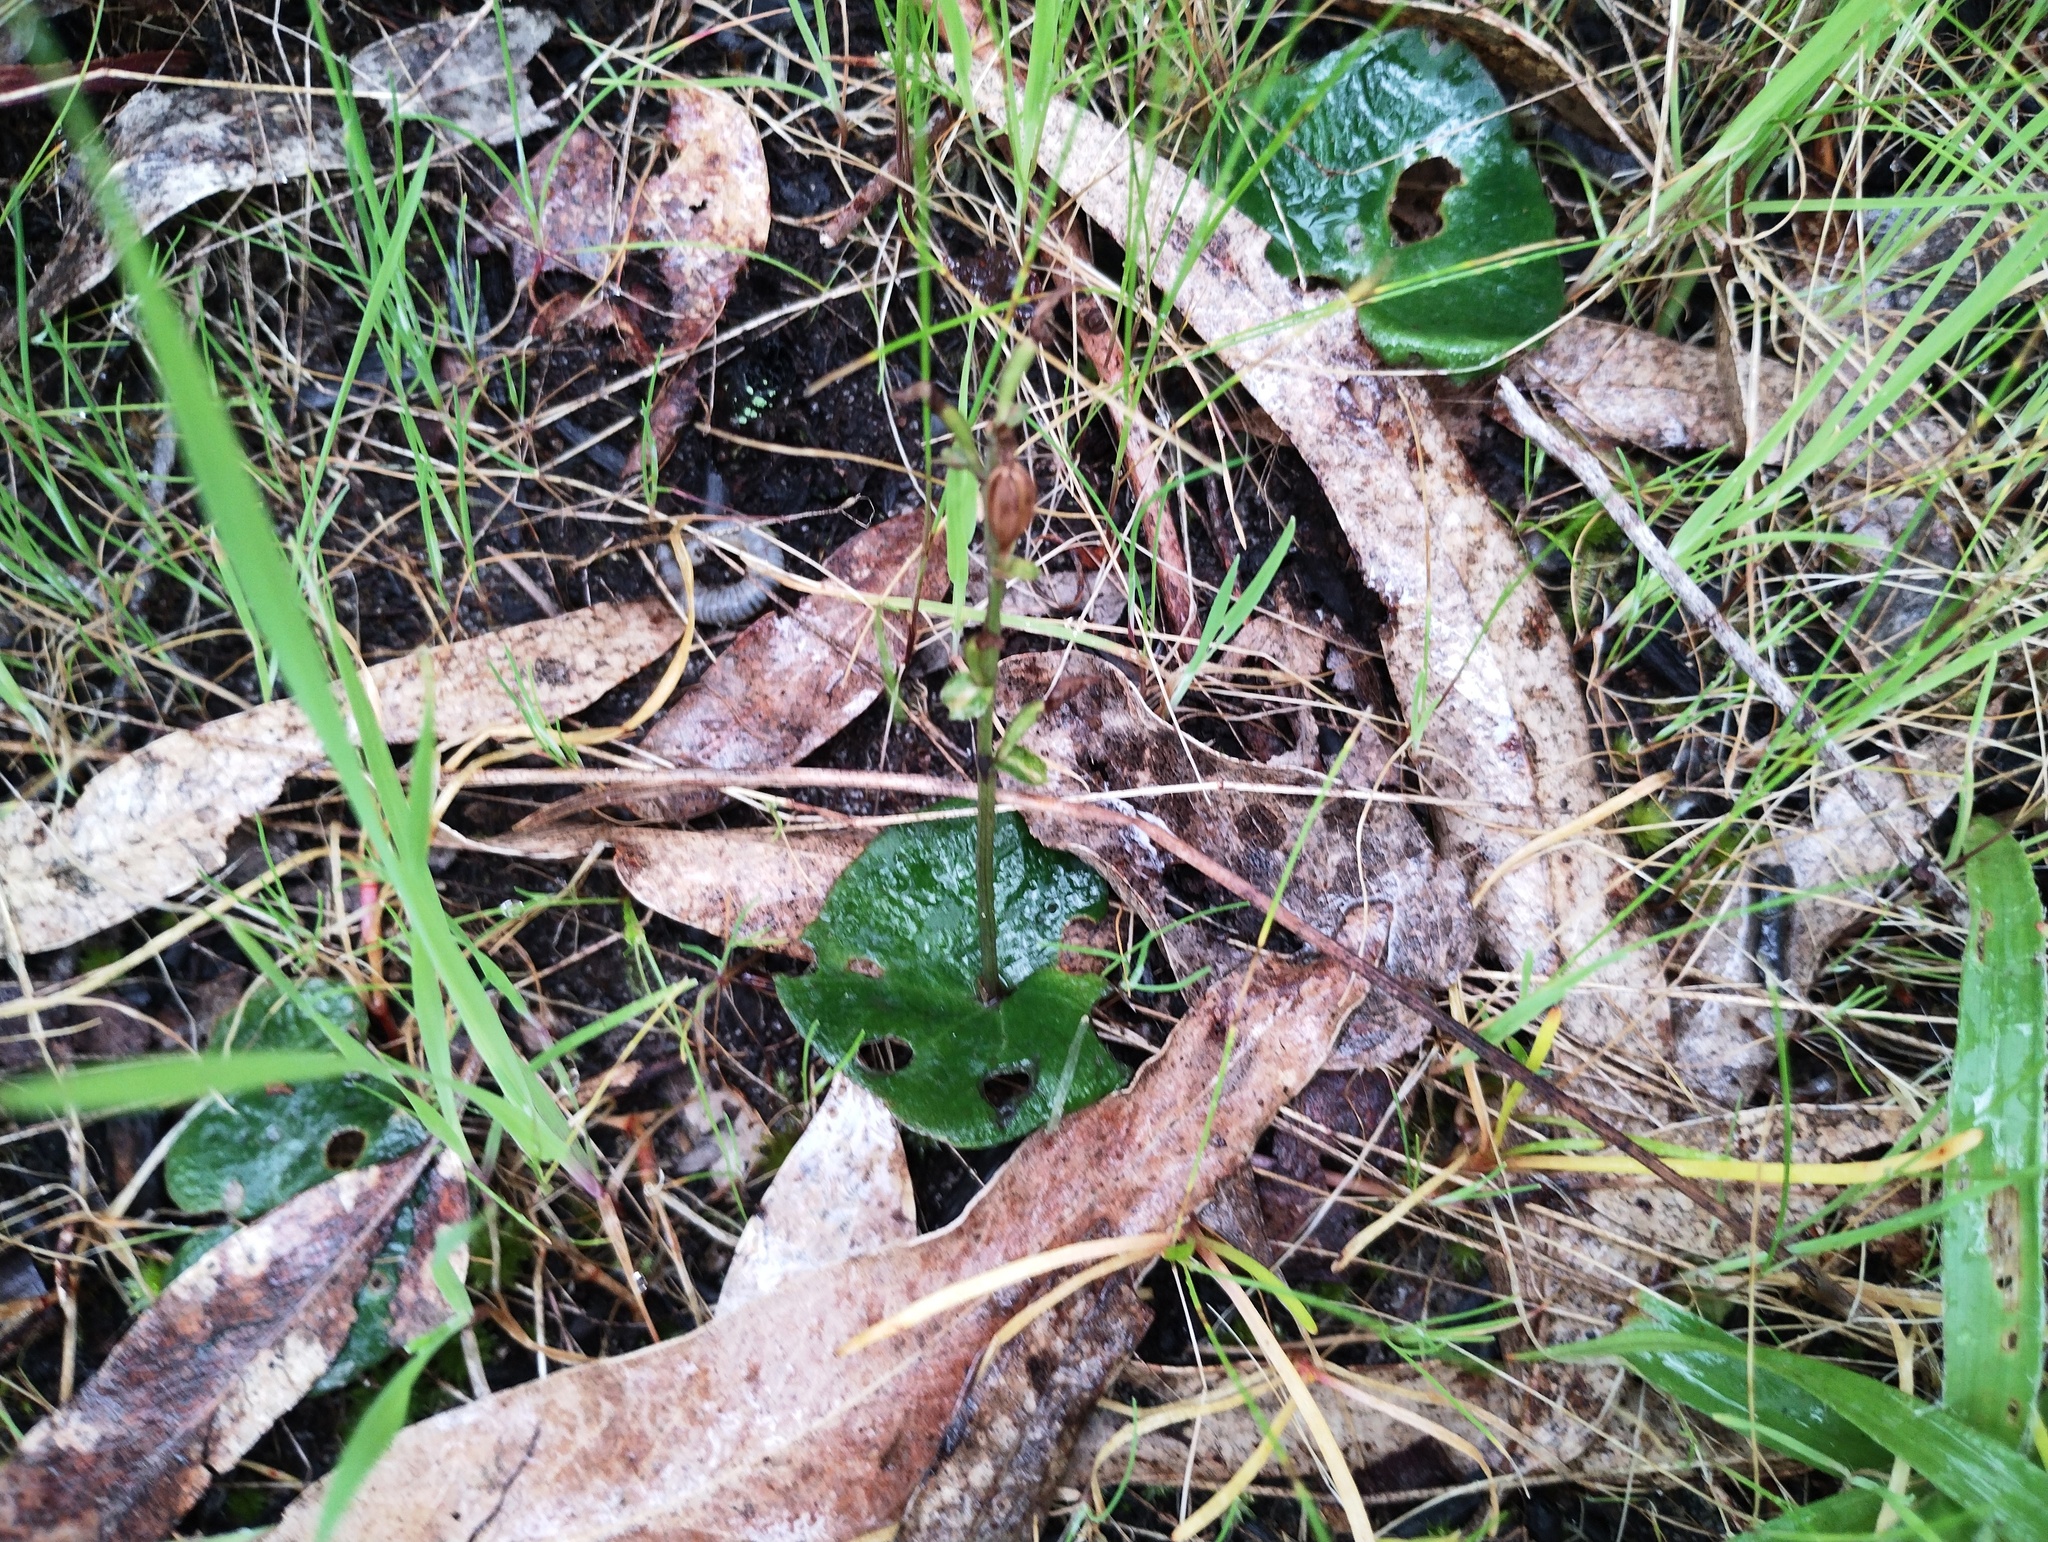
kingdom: Plantae
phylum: Tracheophyta
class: Liliopsida
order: Asparagales
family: Orchidaceae
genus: Acianthus
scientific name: Acianthus pusillus
